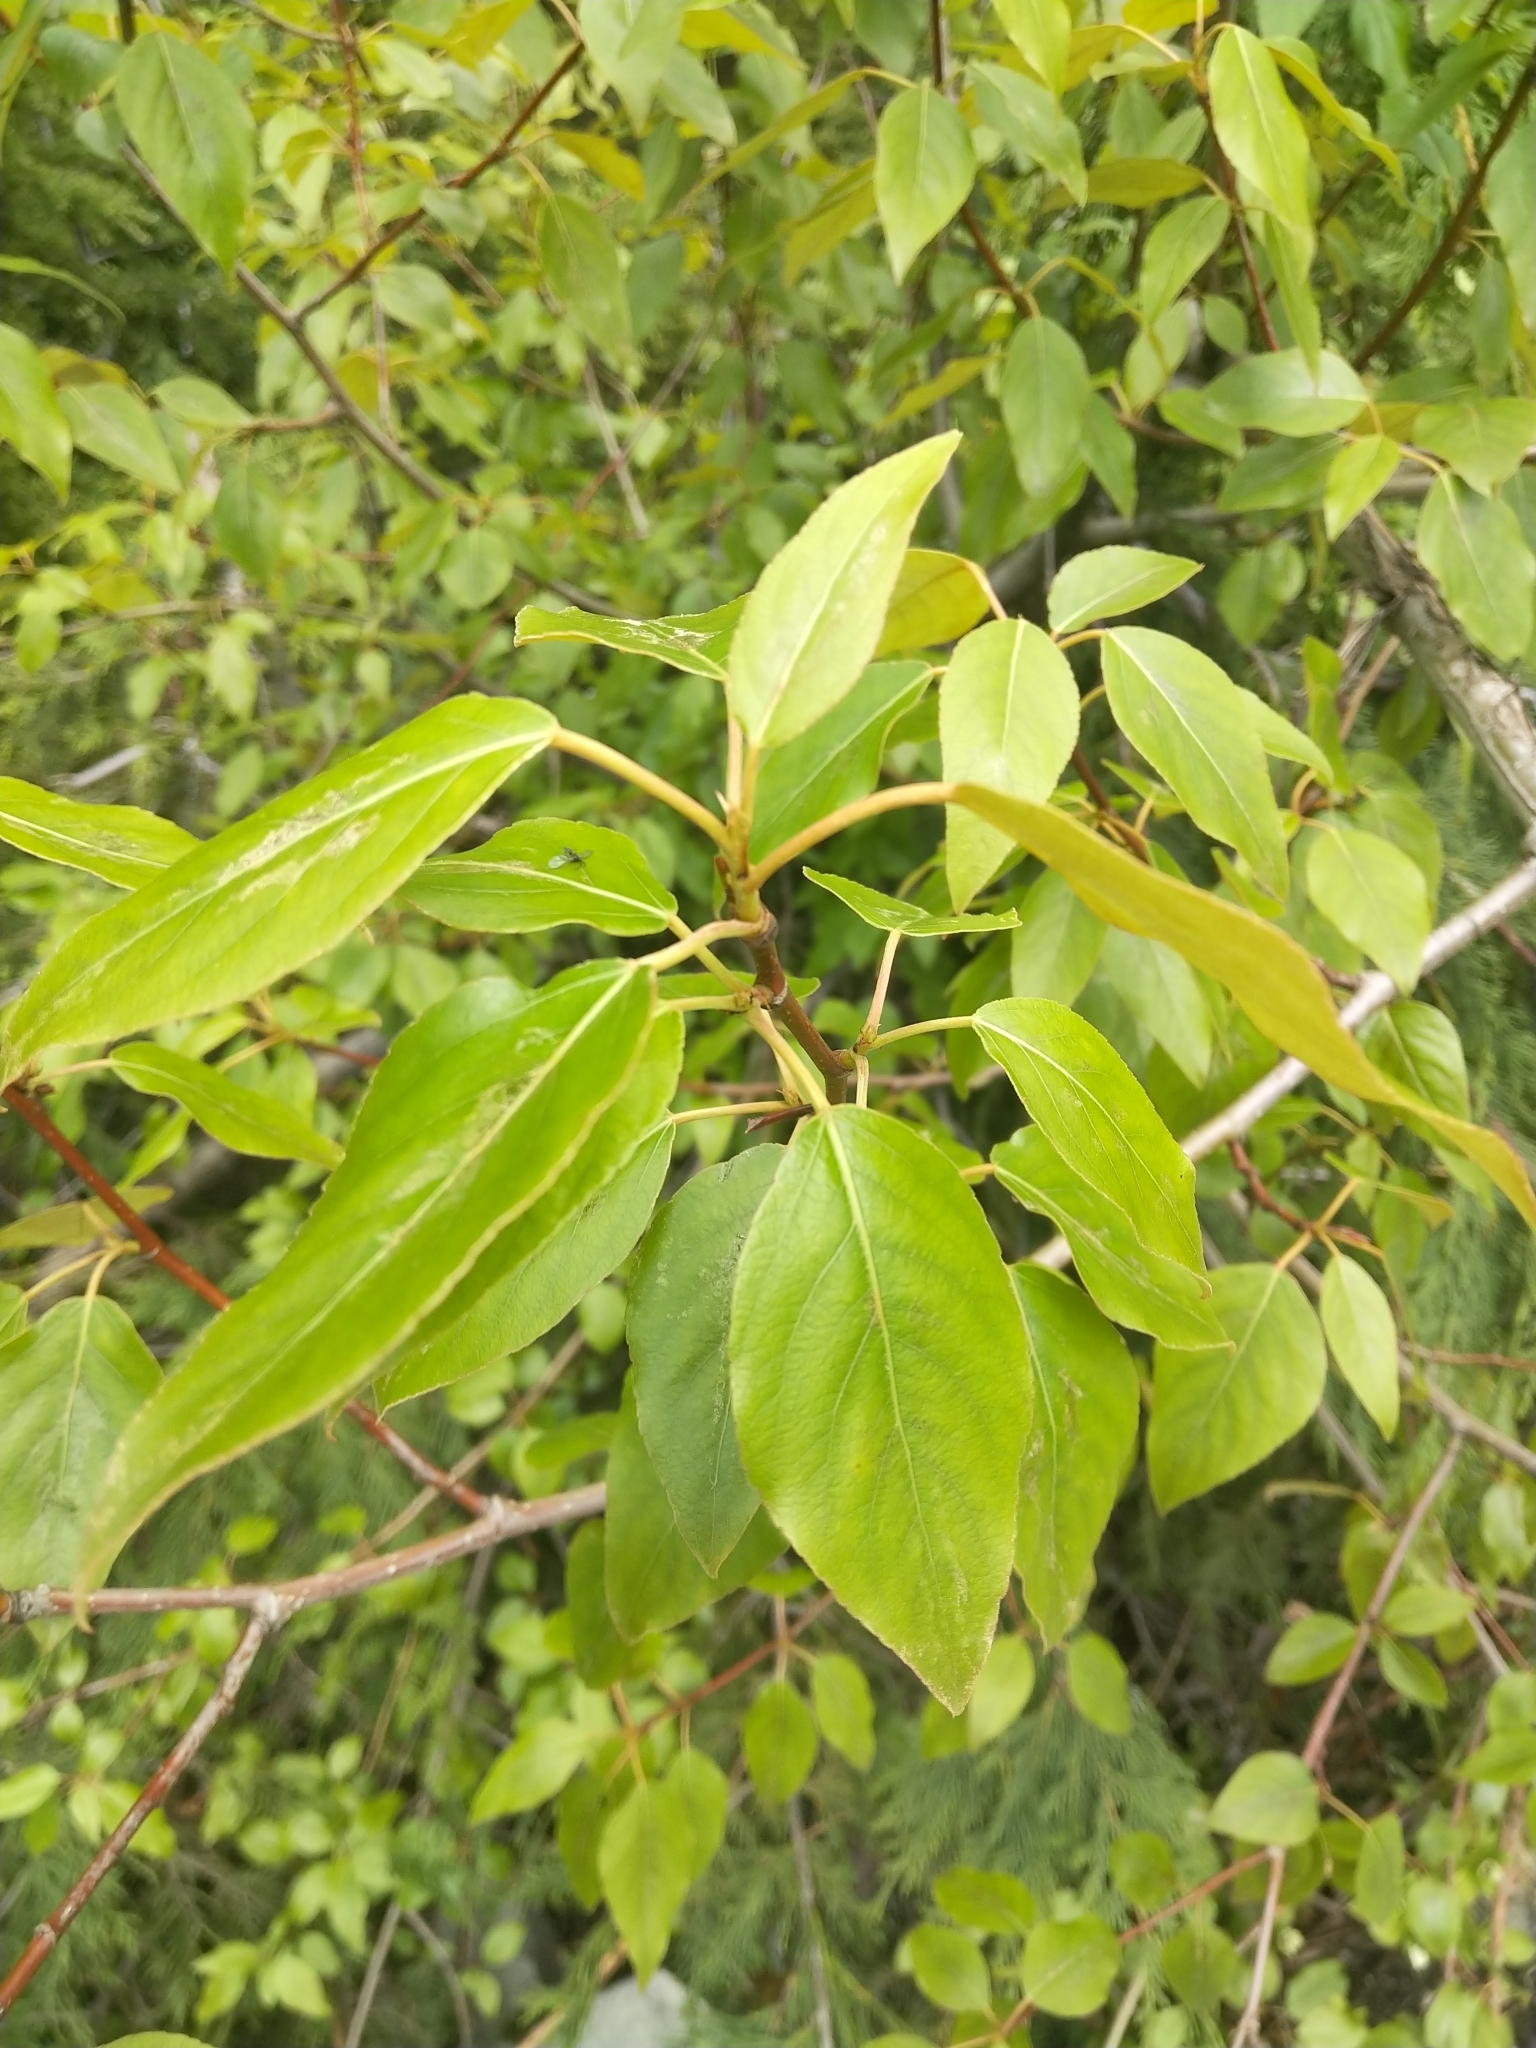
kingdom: Plantae
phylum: Tracheophyta
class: Magnoliopsida
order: Malpighiales
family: Salicaceae
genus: Populus
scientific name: Populus trichocarpa
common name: Black cottonwood
